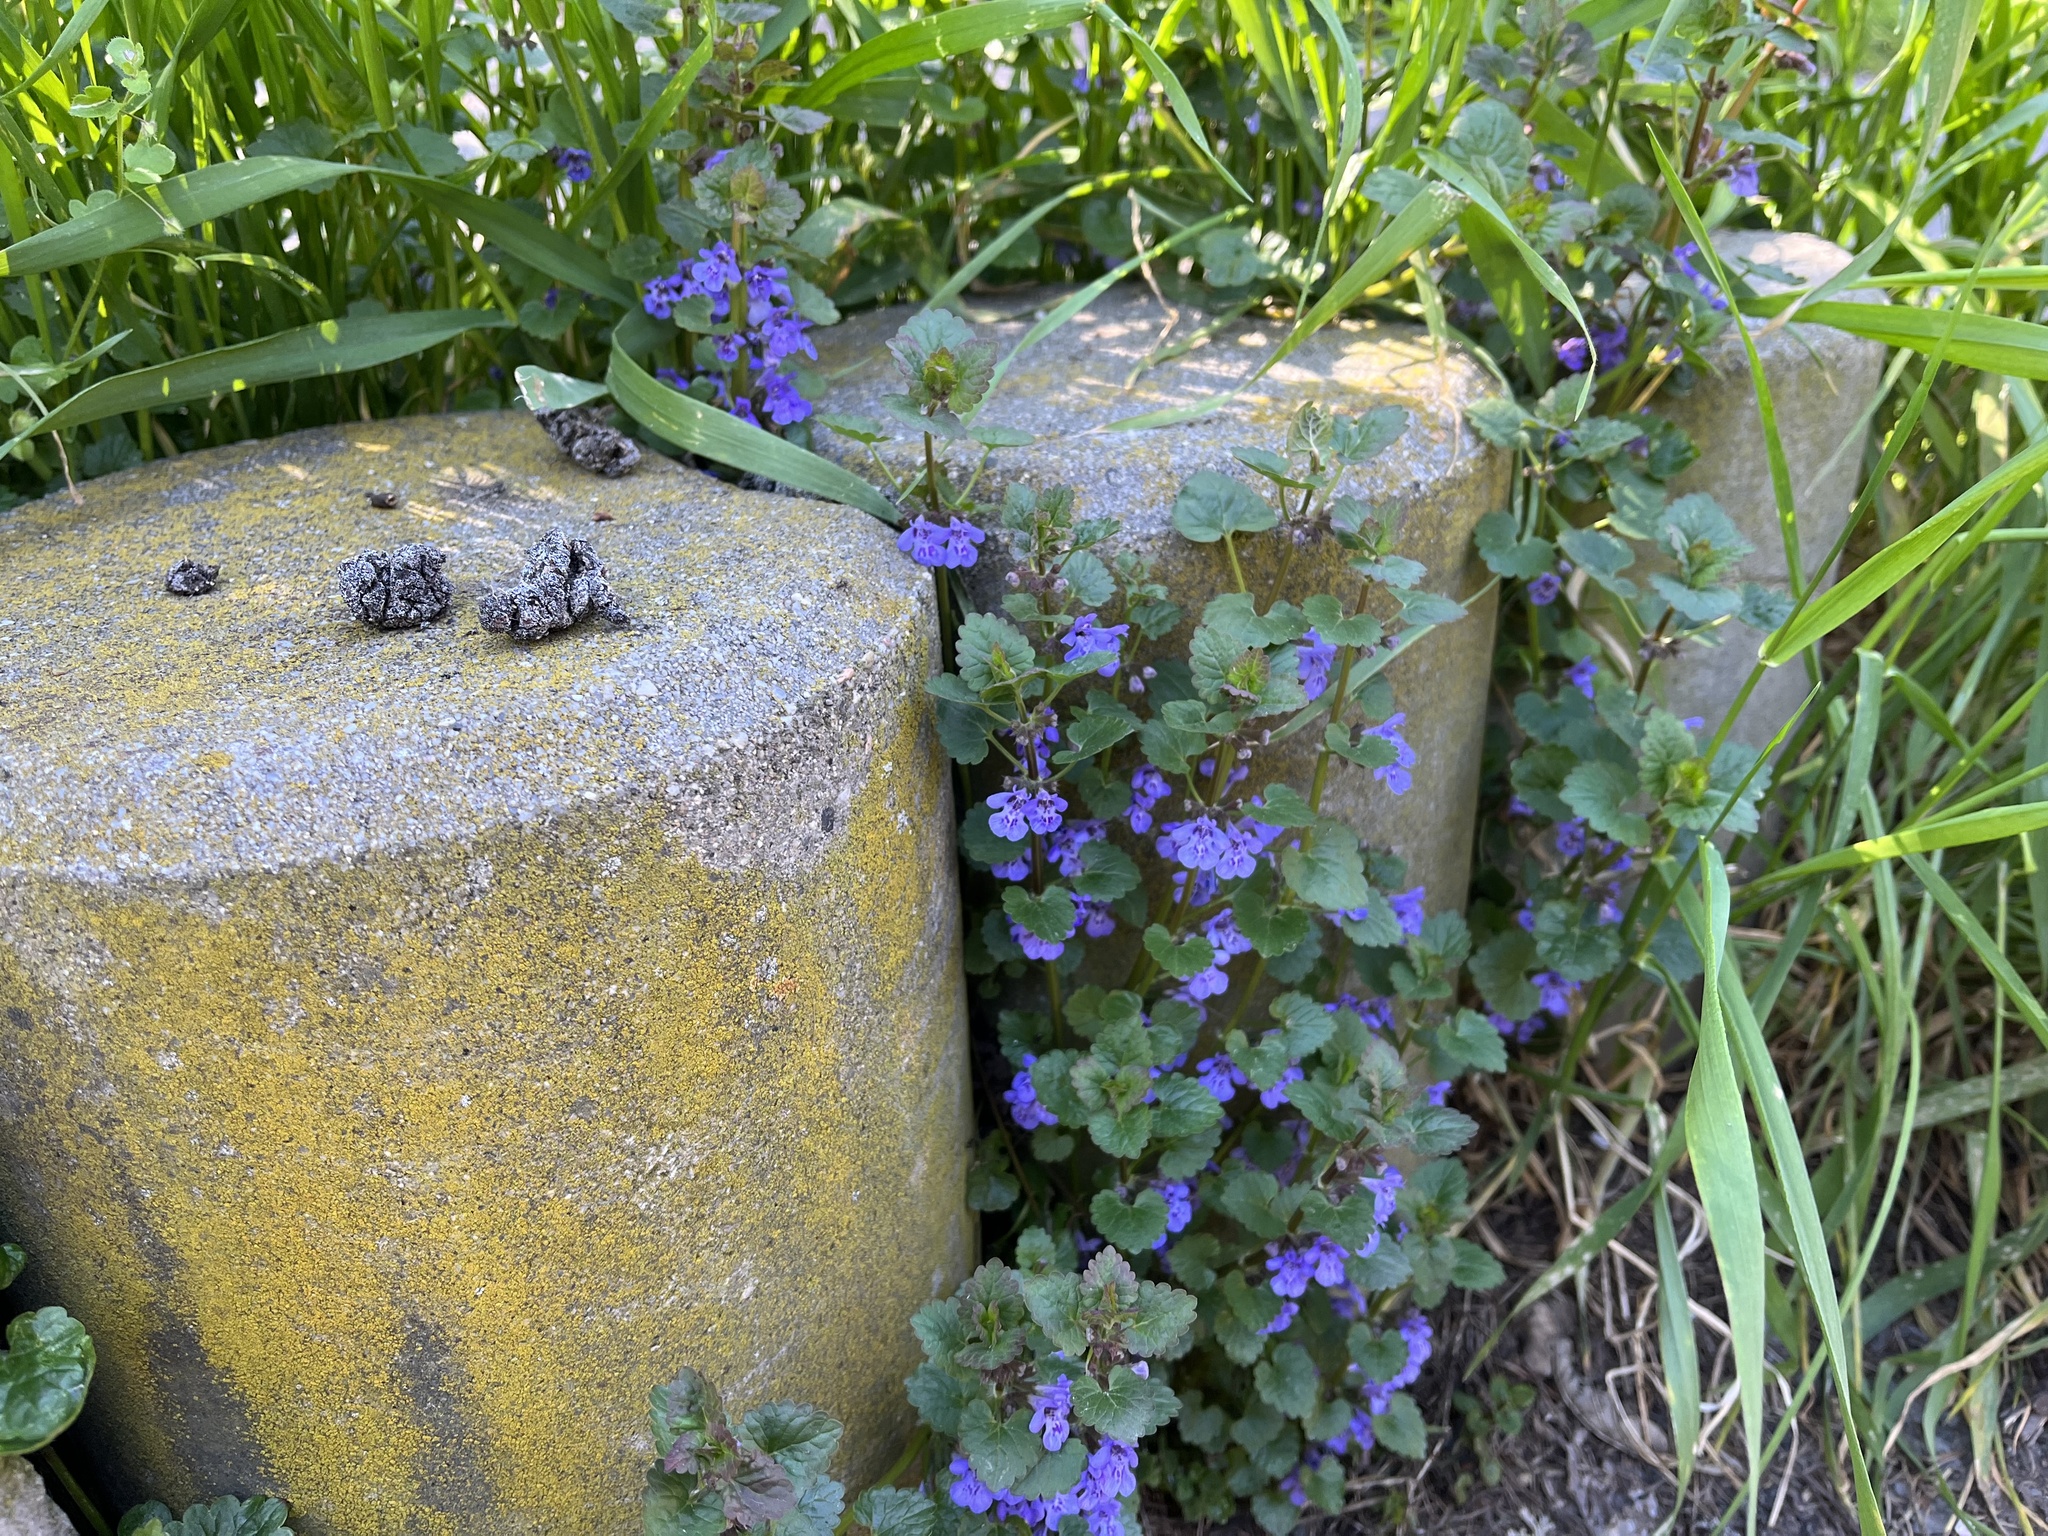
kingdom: Plantae
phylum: Tracheophyta
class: Magnoliopsida
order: Lamiales
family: Lamiaceae
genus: Glechoma
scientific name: Glechoma hederacea
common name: Ground ivy
